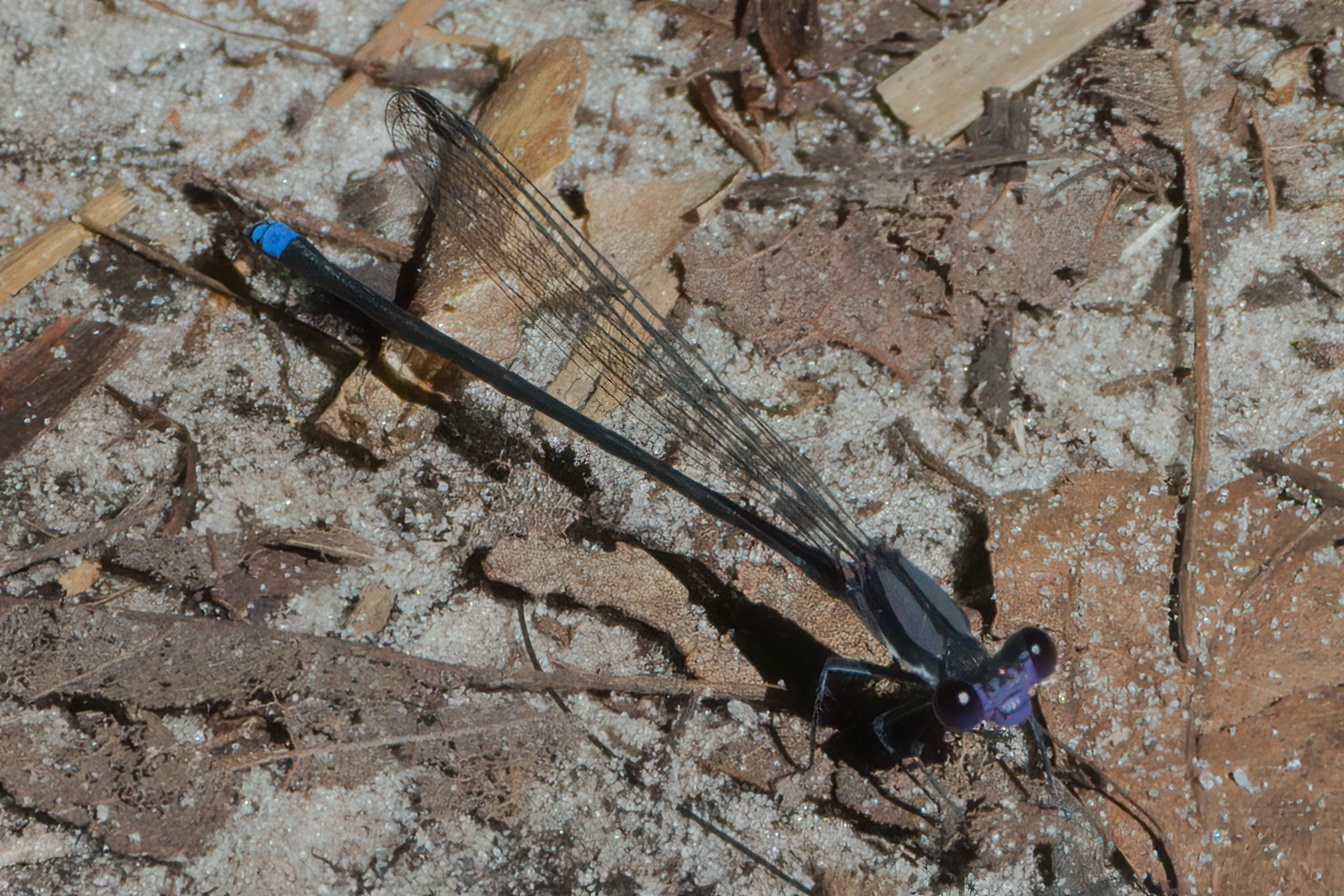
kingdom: Animalia
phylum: Arthropoda
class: Insecta
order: Odonata
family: Coenagrionidae
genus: Argia
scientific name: Argia tibialis
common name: Blue-tipped dancer
